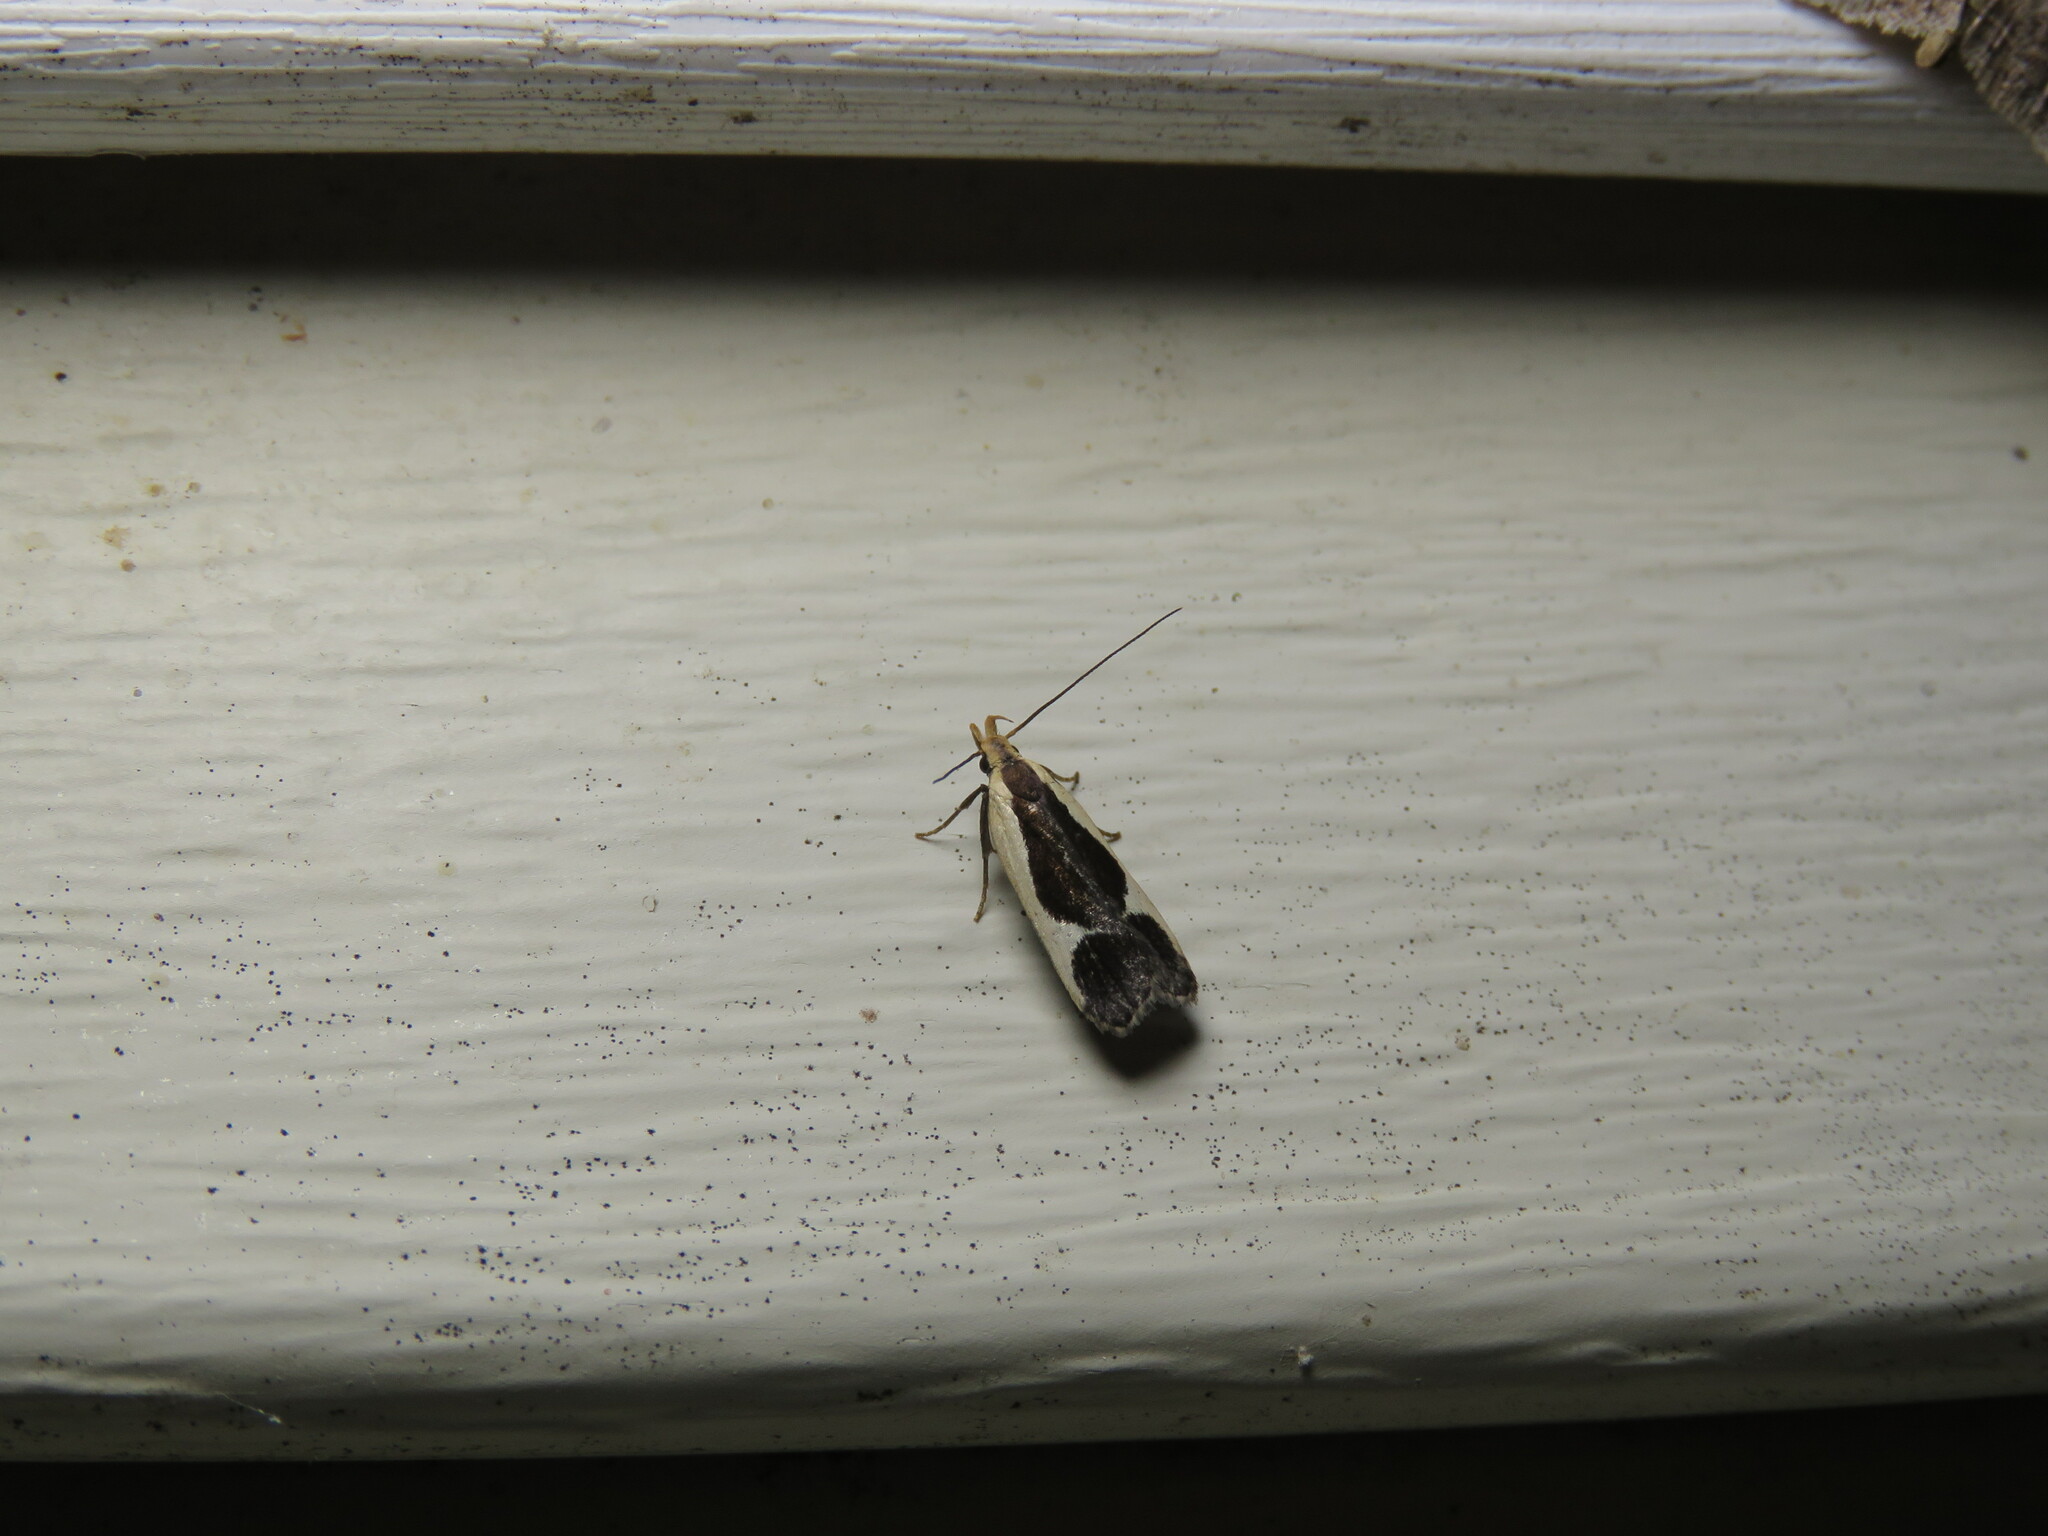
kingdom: Animalia
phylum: Arthropoda
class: Insecta
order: Lepidoptera
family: Gelechiidae
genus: Dichomeris
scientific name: Dichomeris flavocostella
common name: Cream-edged dichomeris moth
